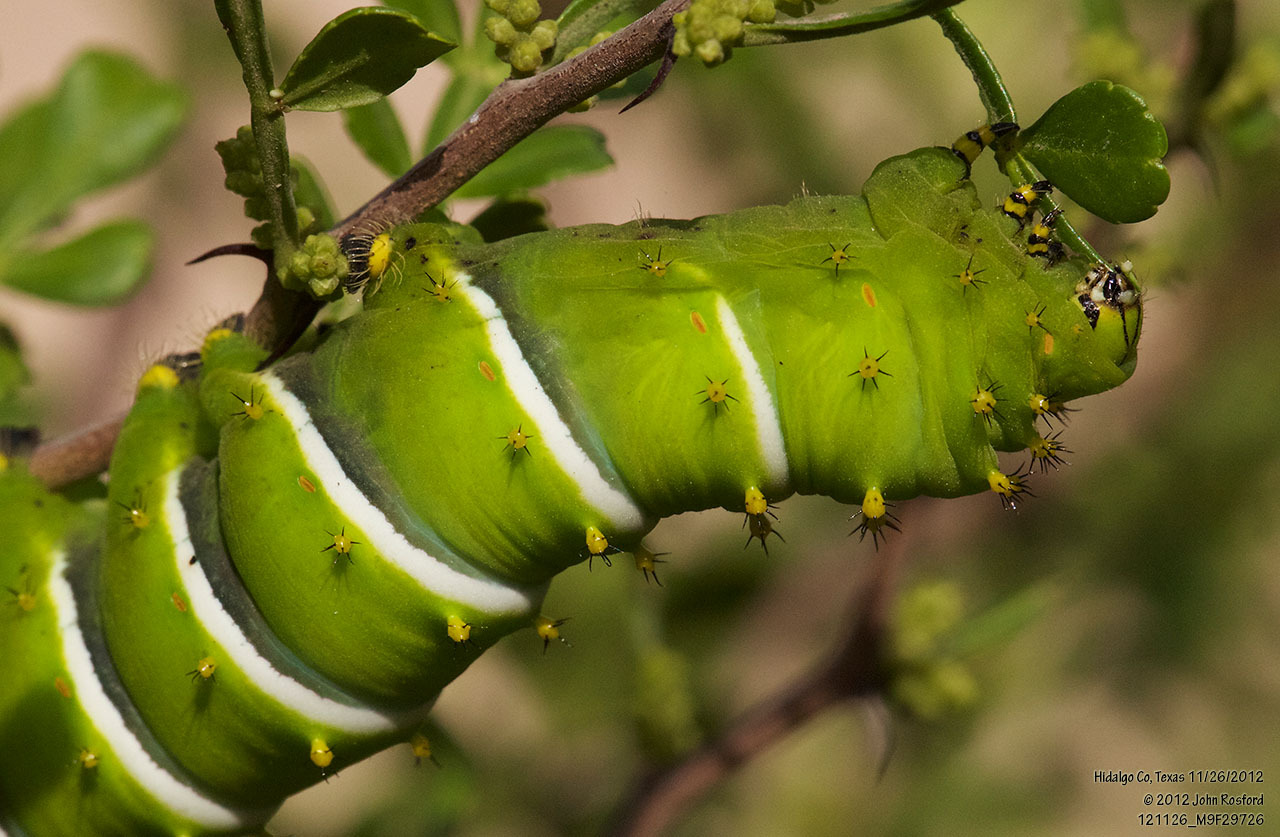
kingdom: Animalia
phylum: Arthropoda
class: Insecta
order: Lepidoptera
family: Saturniidae
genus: Rothschildia
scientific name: Rothschildia lebeau
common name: Lebeau's rothschildia
